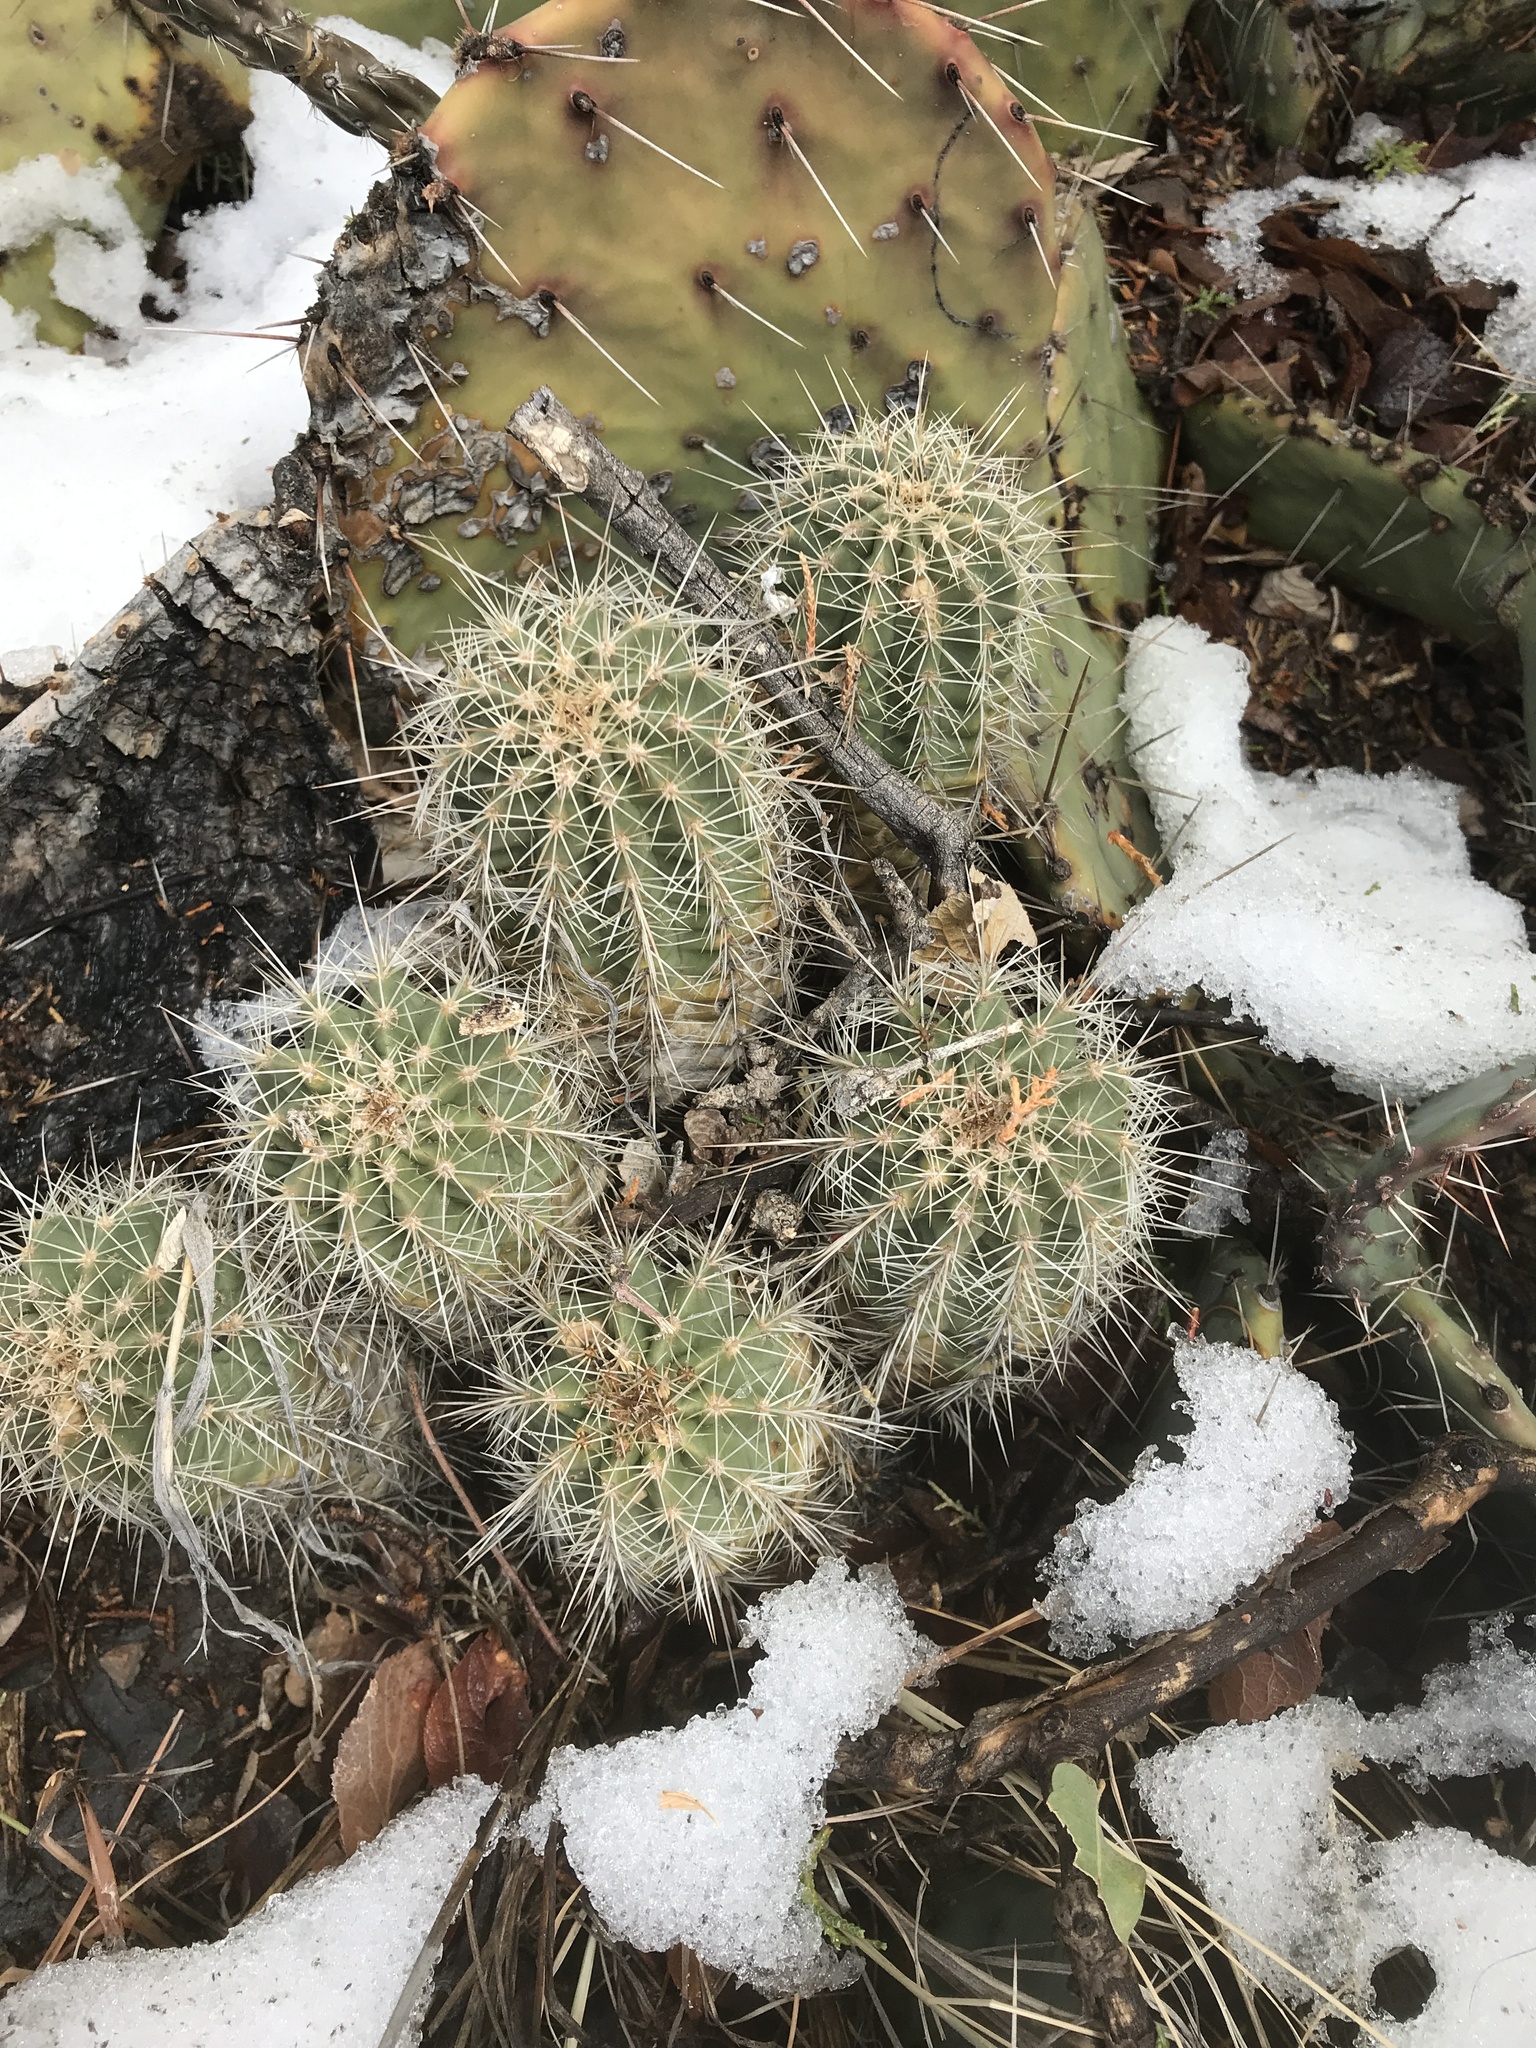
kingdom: Plantae
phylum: Tracheophyta
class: Magnoliopsida
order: Caryophyllales
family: Cactaceae
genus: Echinocereus
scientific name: Echinocereus coccineus
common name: Scarlet hedgehog cactus
